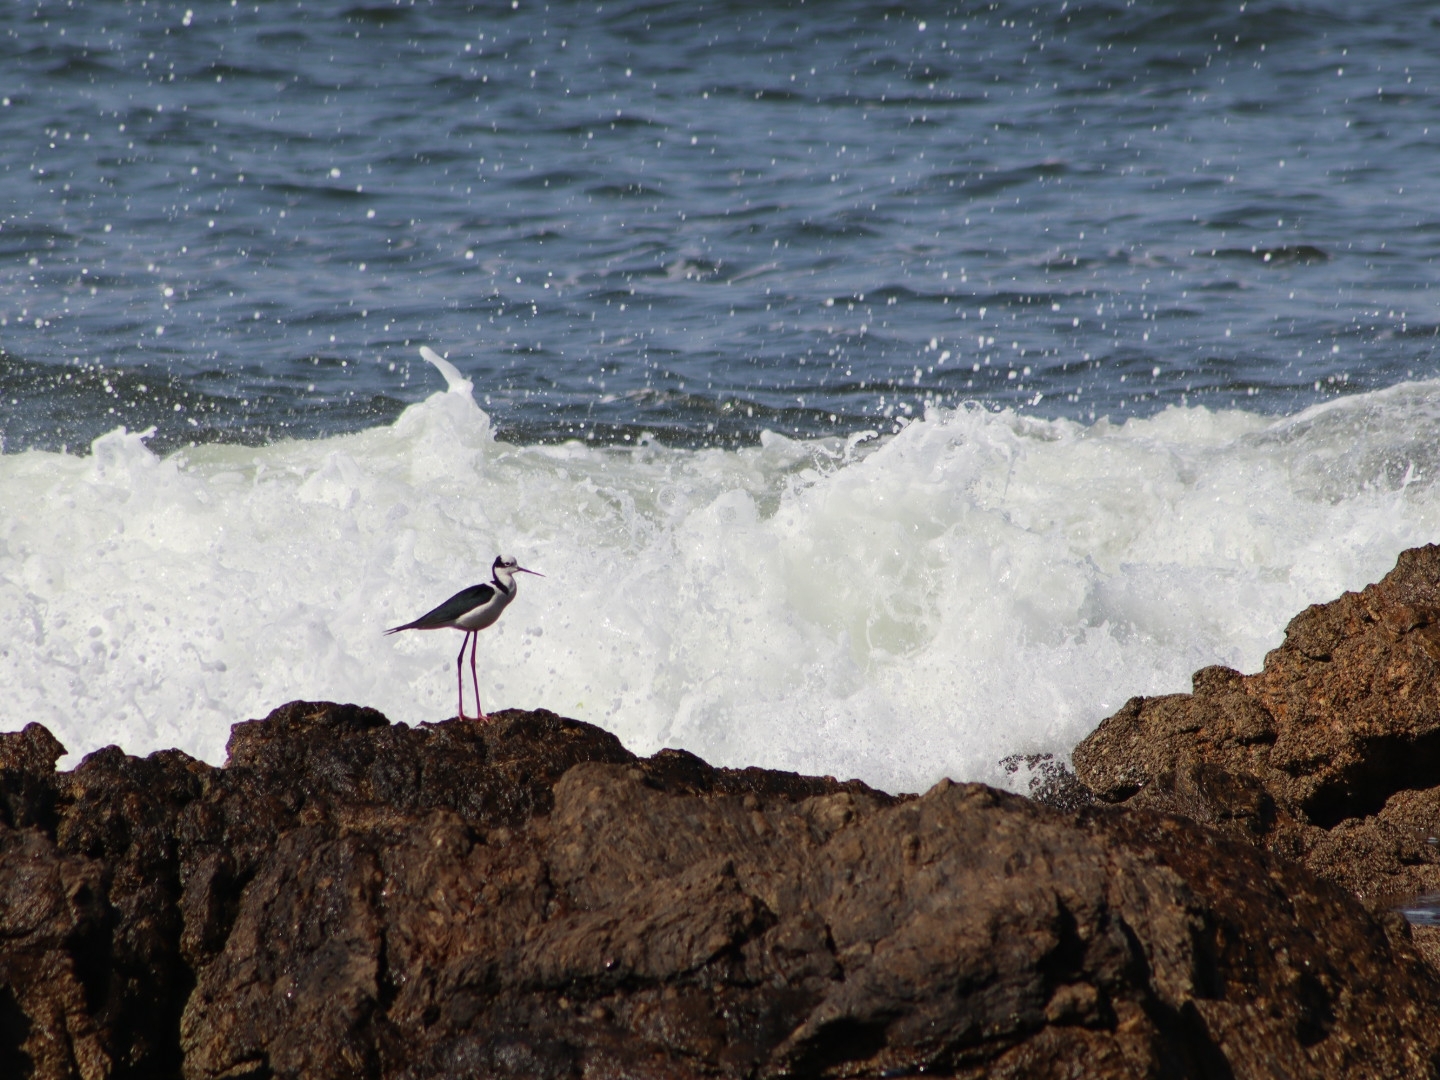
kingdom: Animalia
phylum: Chordata
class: Aves
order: Charadriiformes
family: Recurvirostridae
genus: Himantopus
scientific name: Himantopus mexicanus
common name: Black-necked stilt
